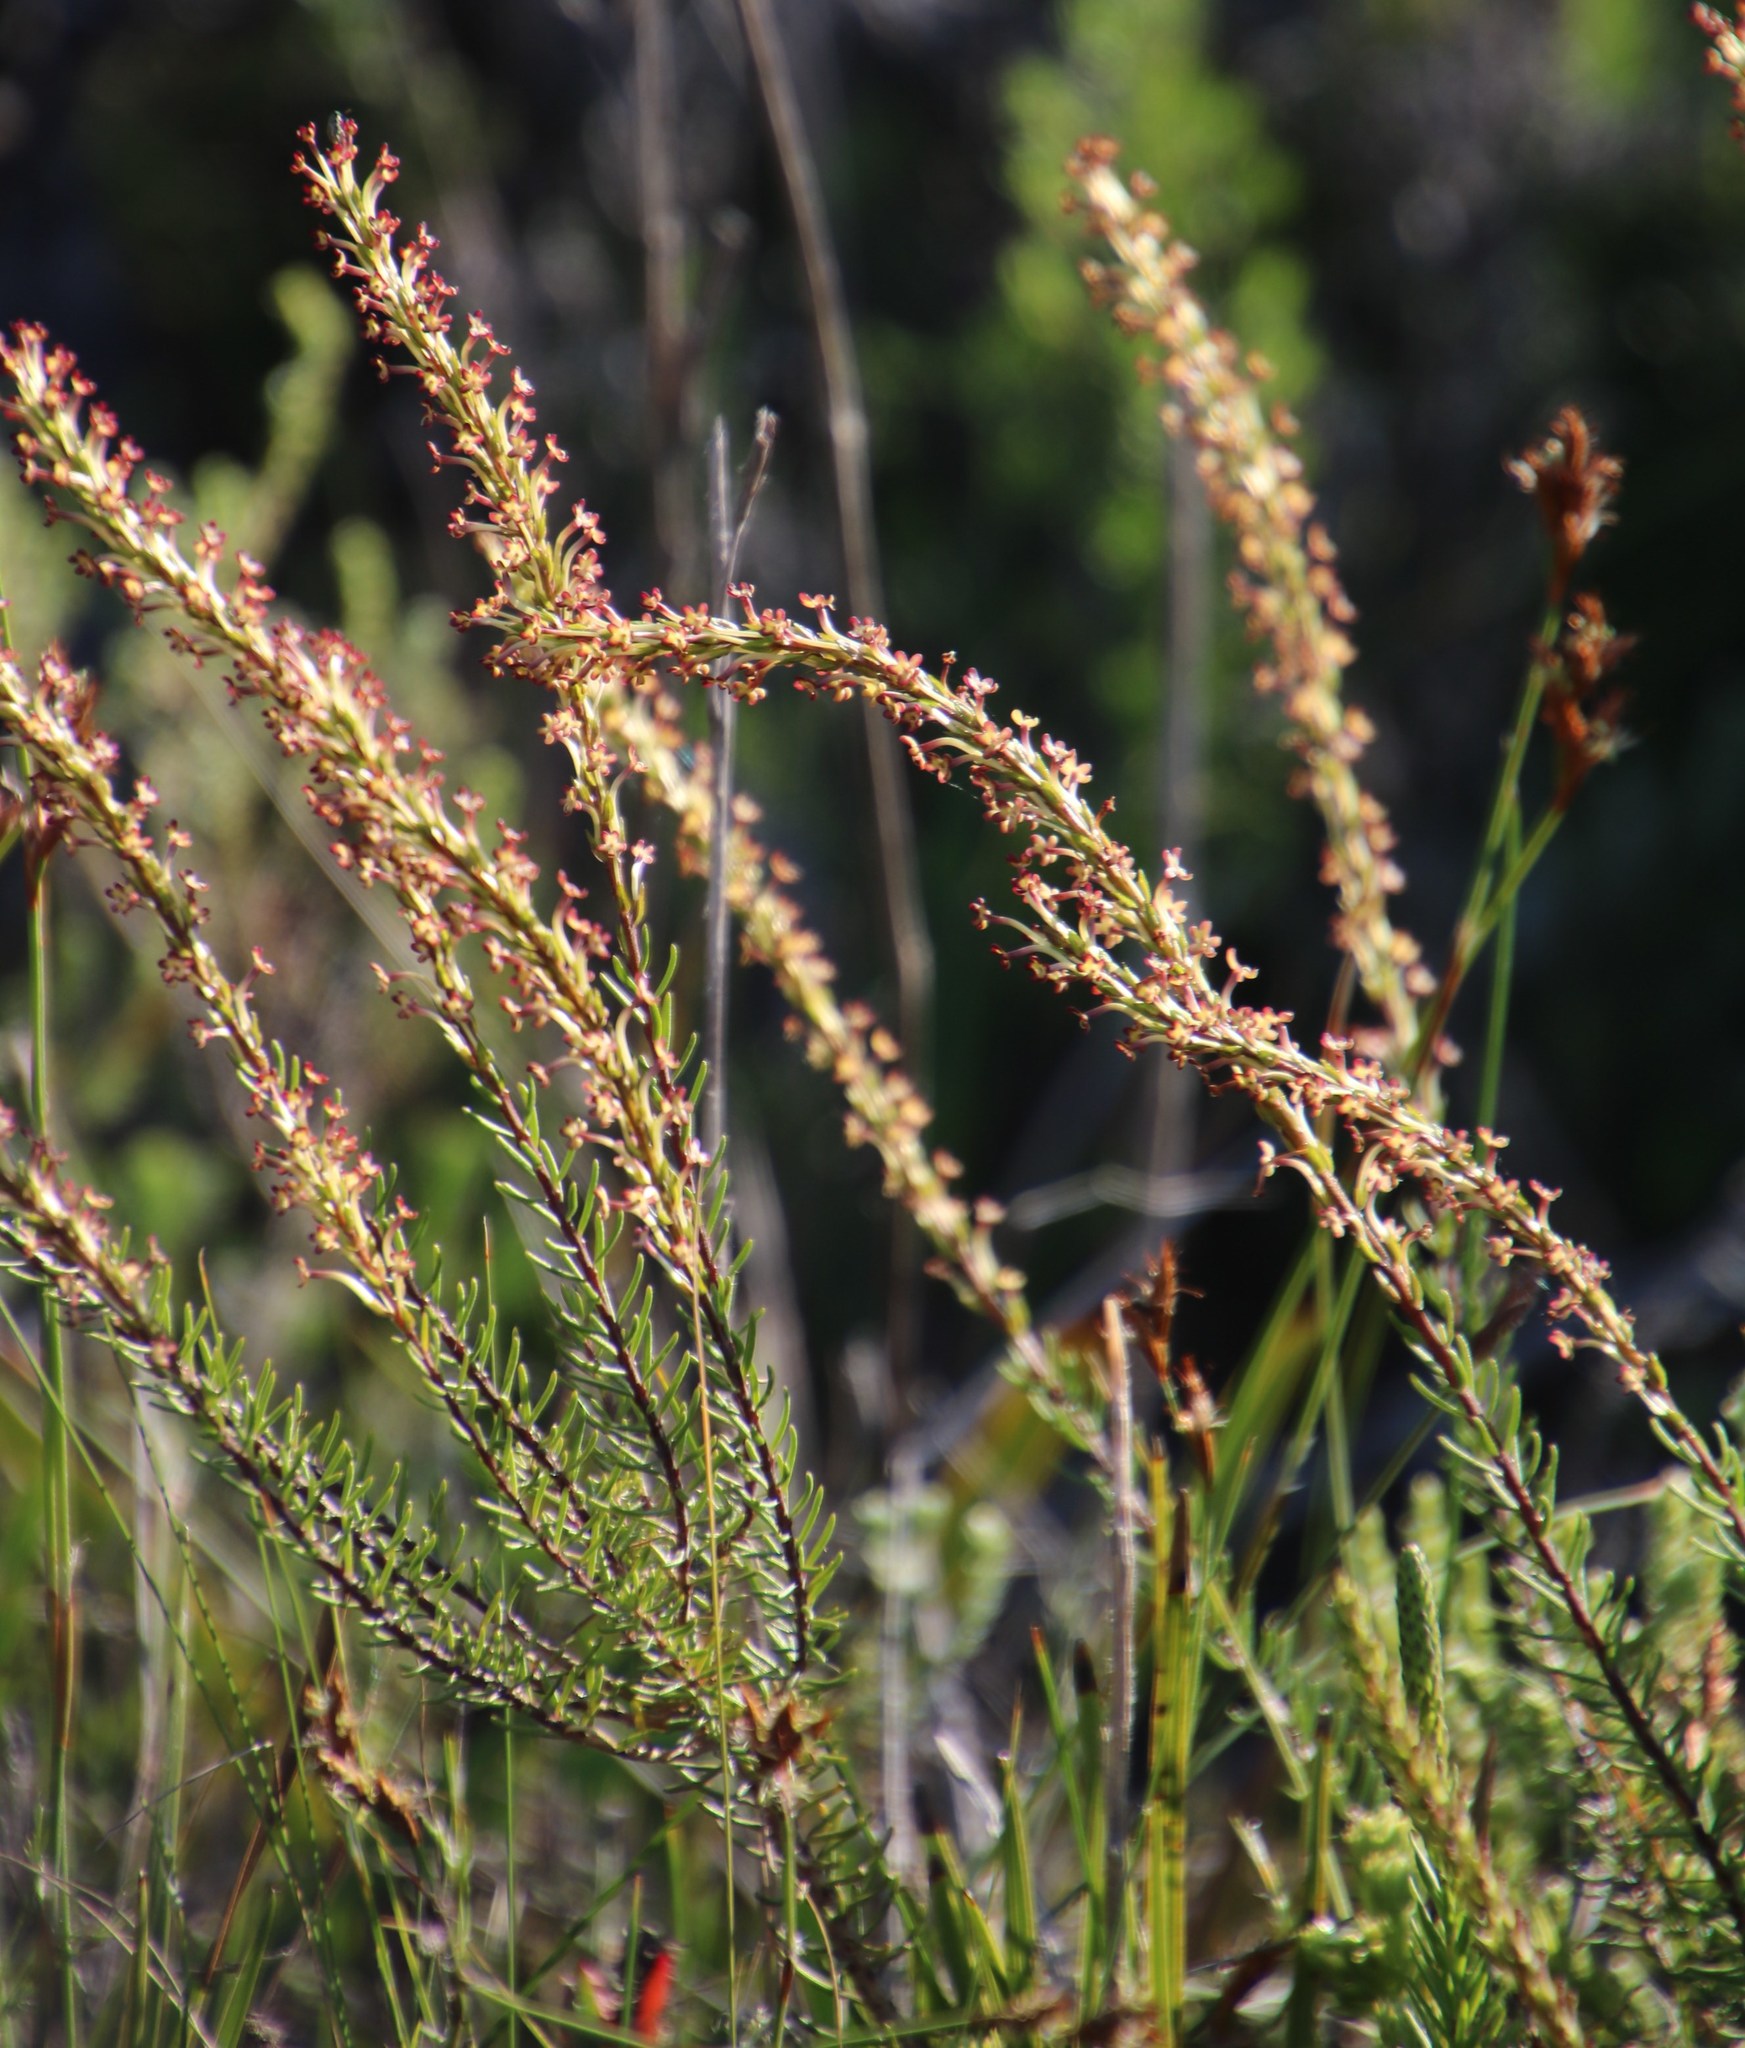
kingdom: Plantae
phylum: Tracheophyta
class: Magnoliopsida
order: Lamiales
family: Scrophulariaceae
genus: Microdon
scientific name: Microdon dubius
